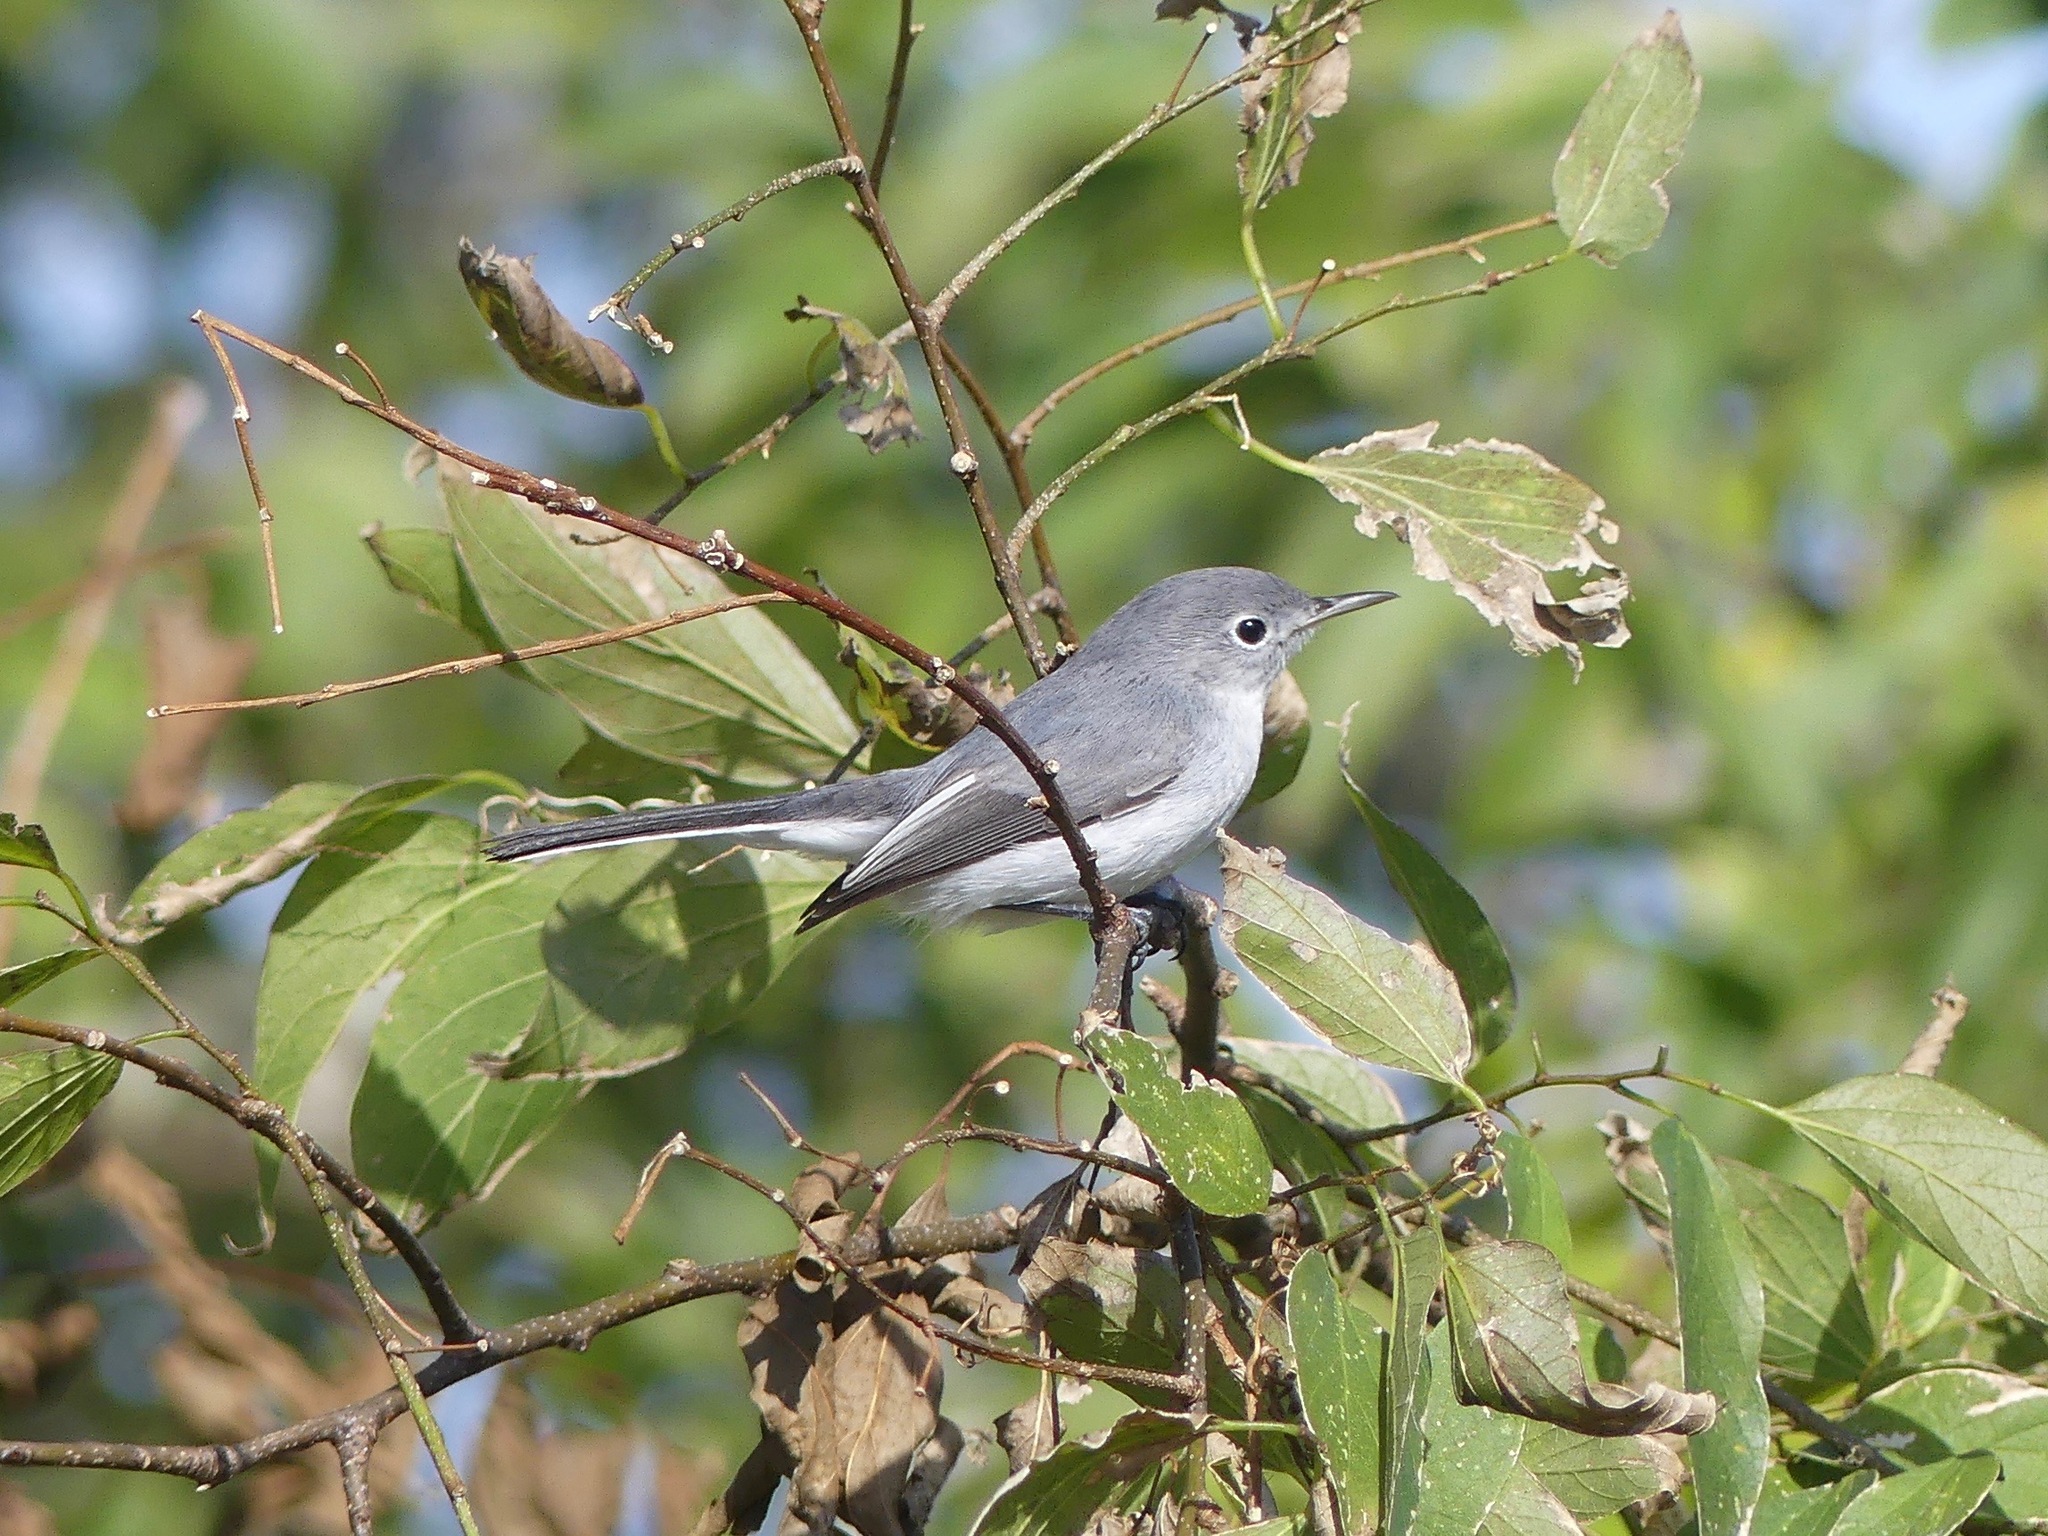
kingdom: Animalia
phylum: Chordata
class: Aves
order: Passeriformes
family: Polioptilidae
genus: Polioptila
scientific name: Polioptila caerulea
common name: Blue-gray gnatcatcher
